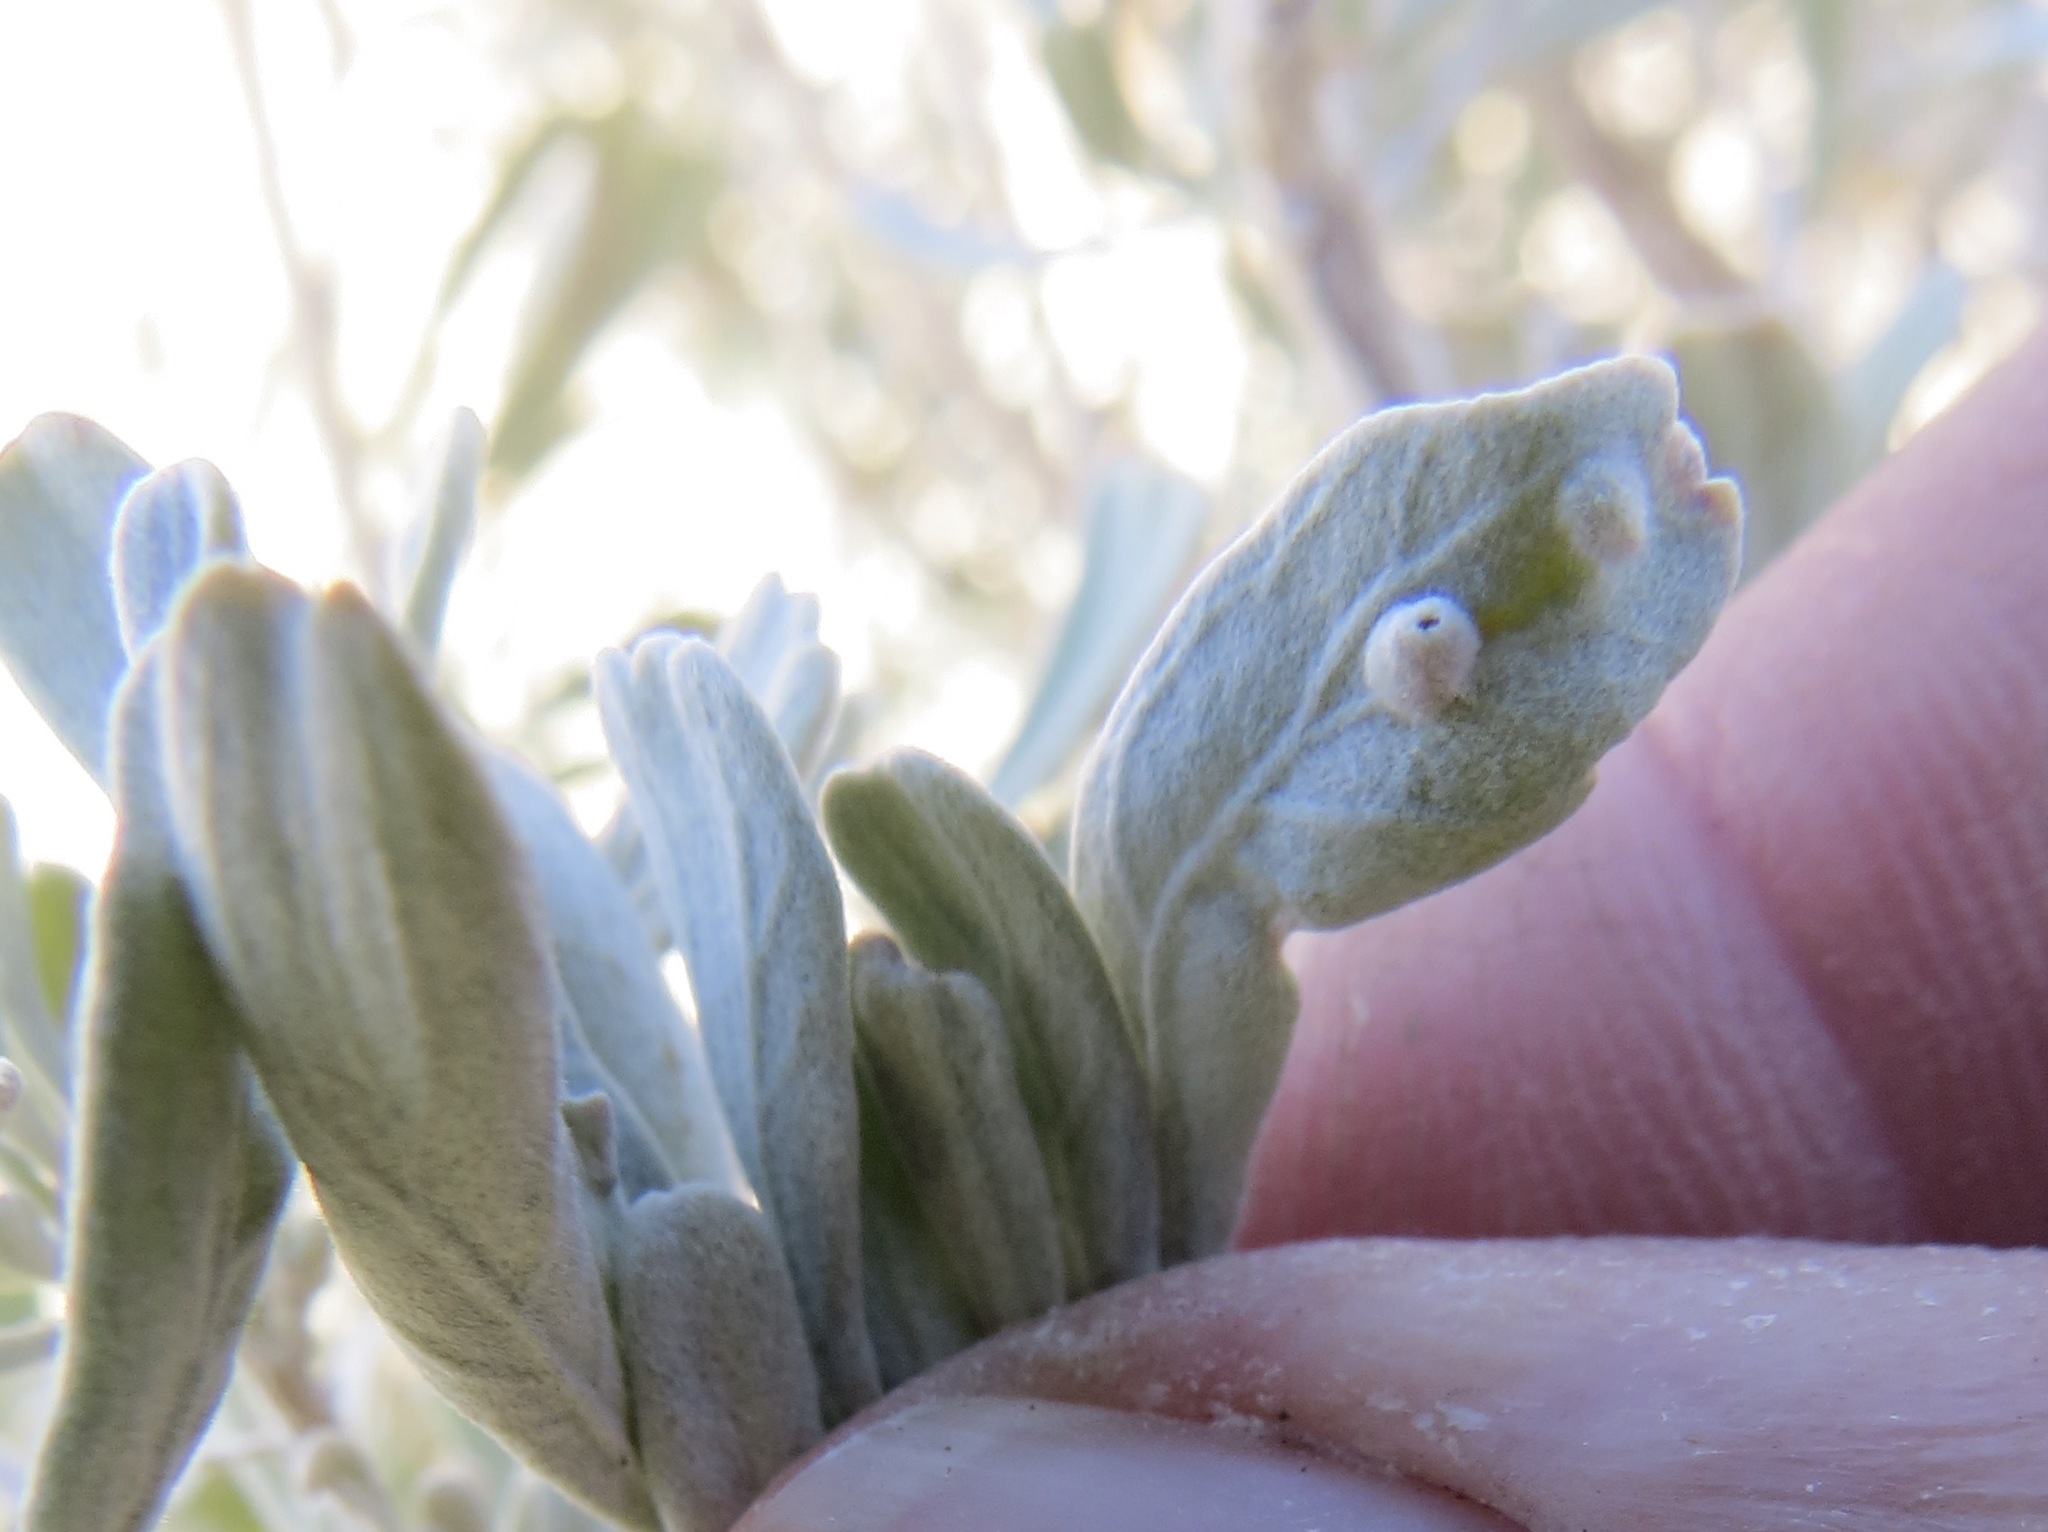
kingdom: Animalia
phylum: Arthropoda
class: Insecta
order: Diptera
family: Cecidomyiidae
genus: Rhopalomyia
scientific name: Rhopalomyia hirtibulla
